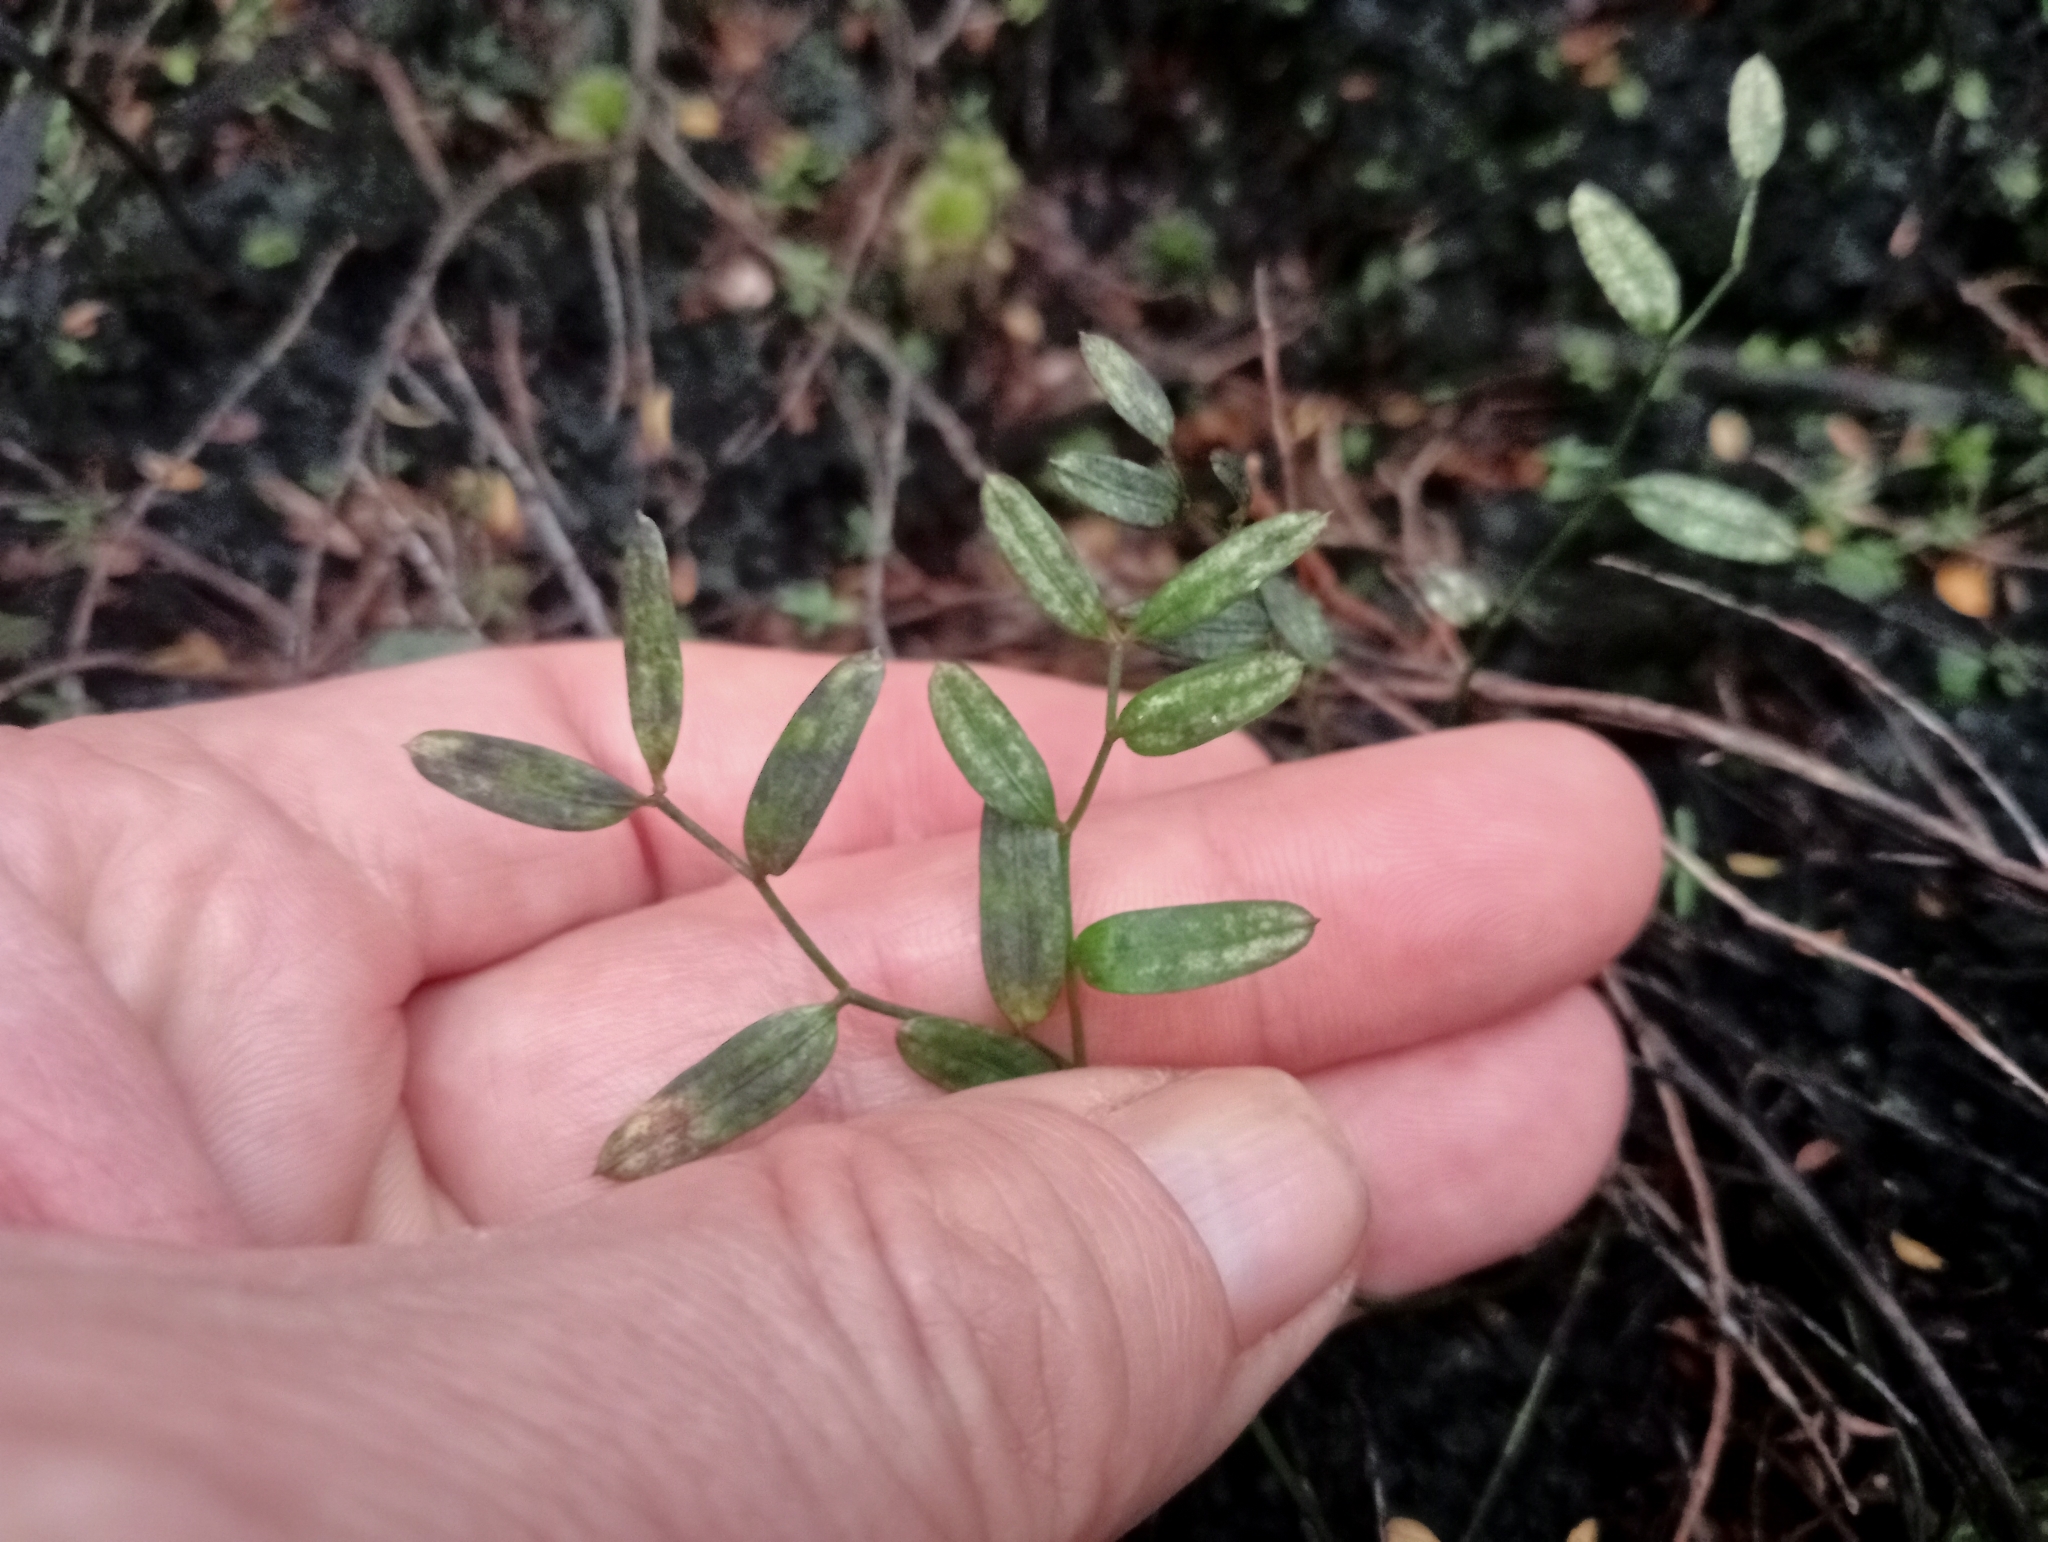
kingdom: Plantae
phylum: Tracheophyta
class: Liliopsida
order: Liliales
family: Alstroemeriaceae
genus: Luzuriaga
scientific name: Luzuriaga parviflora
